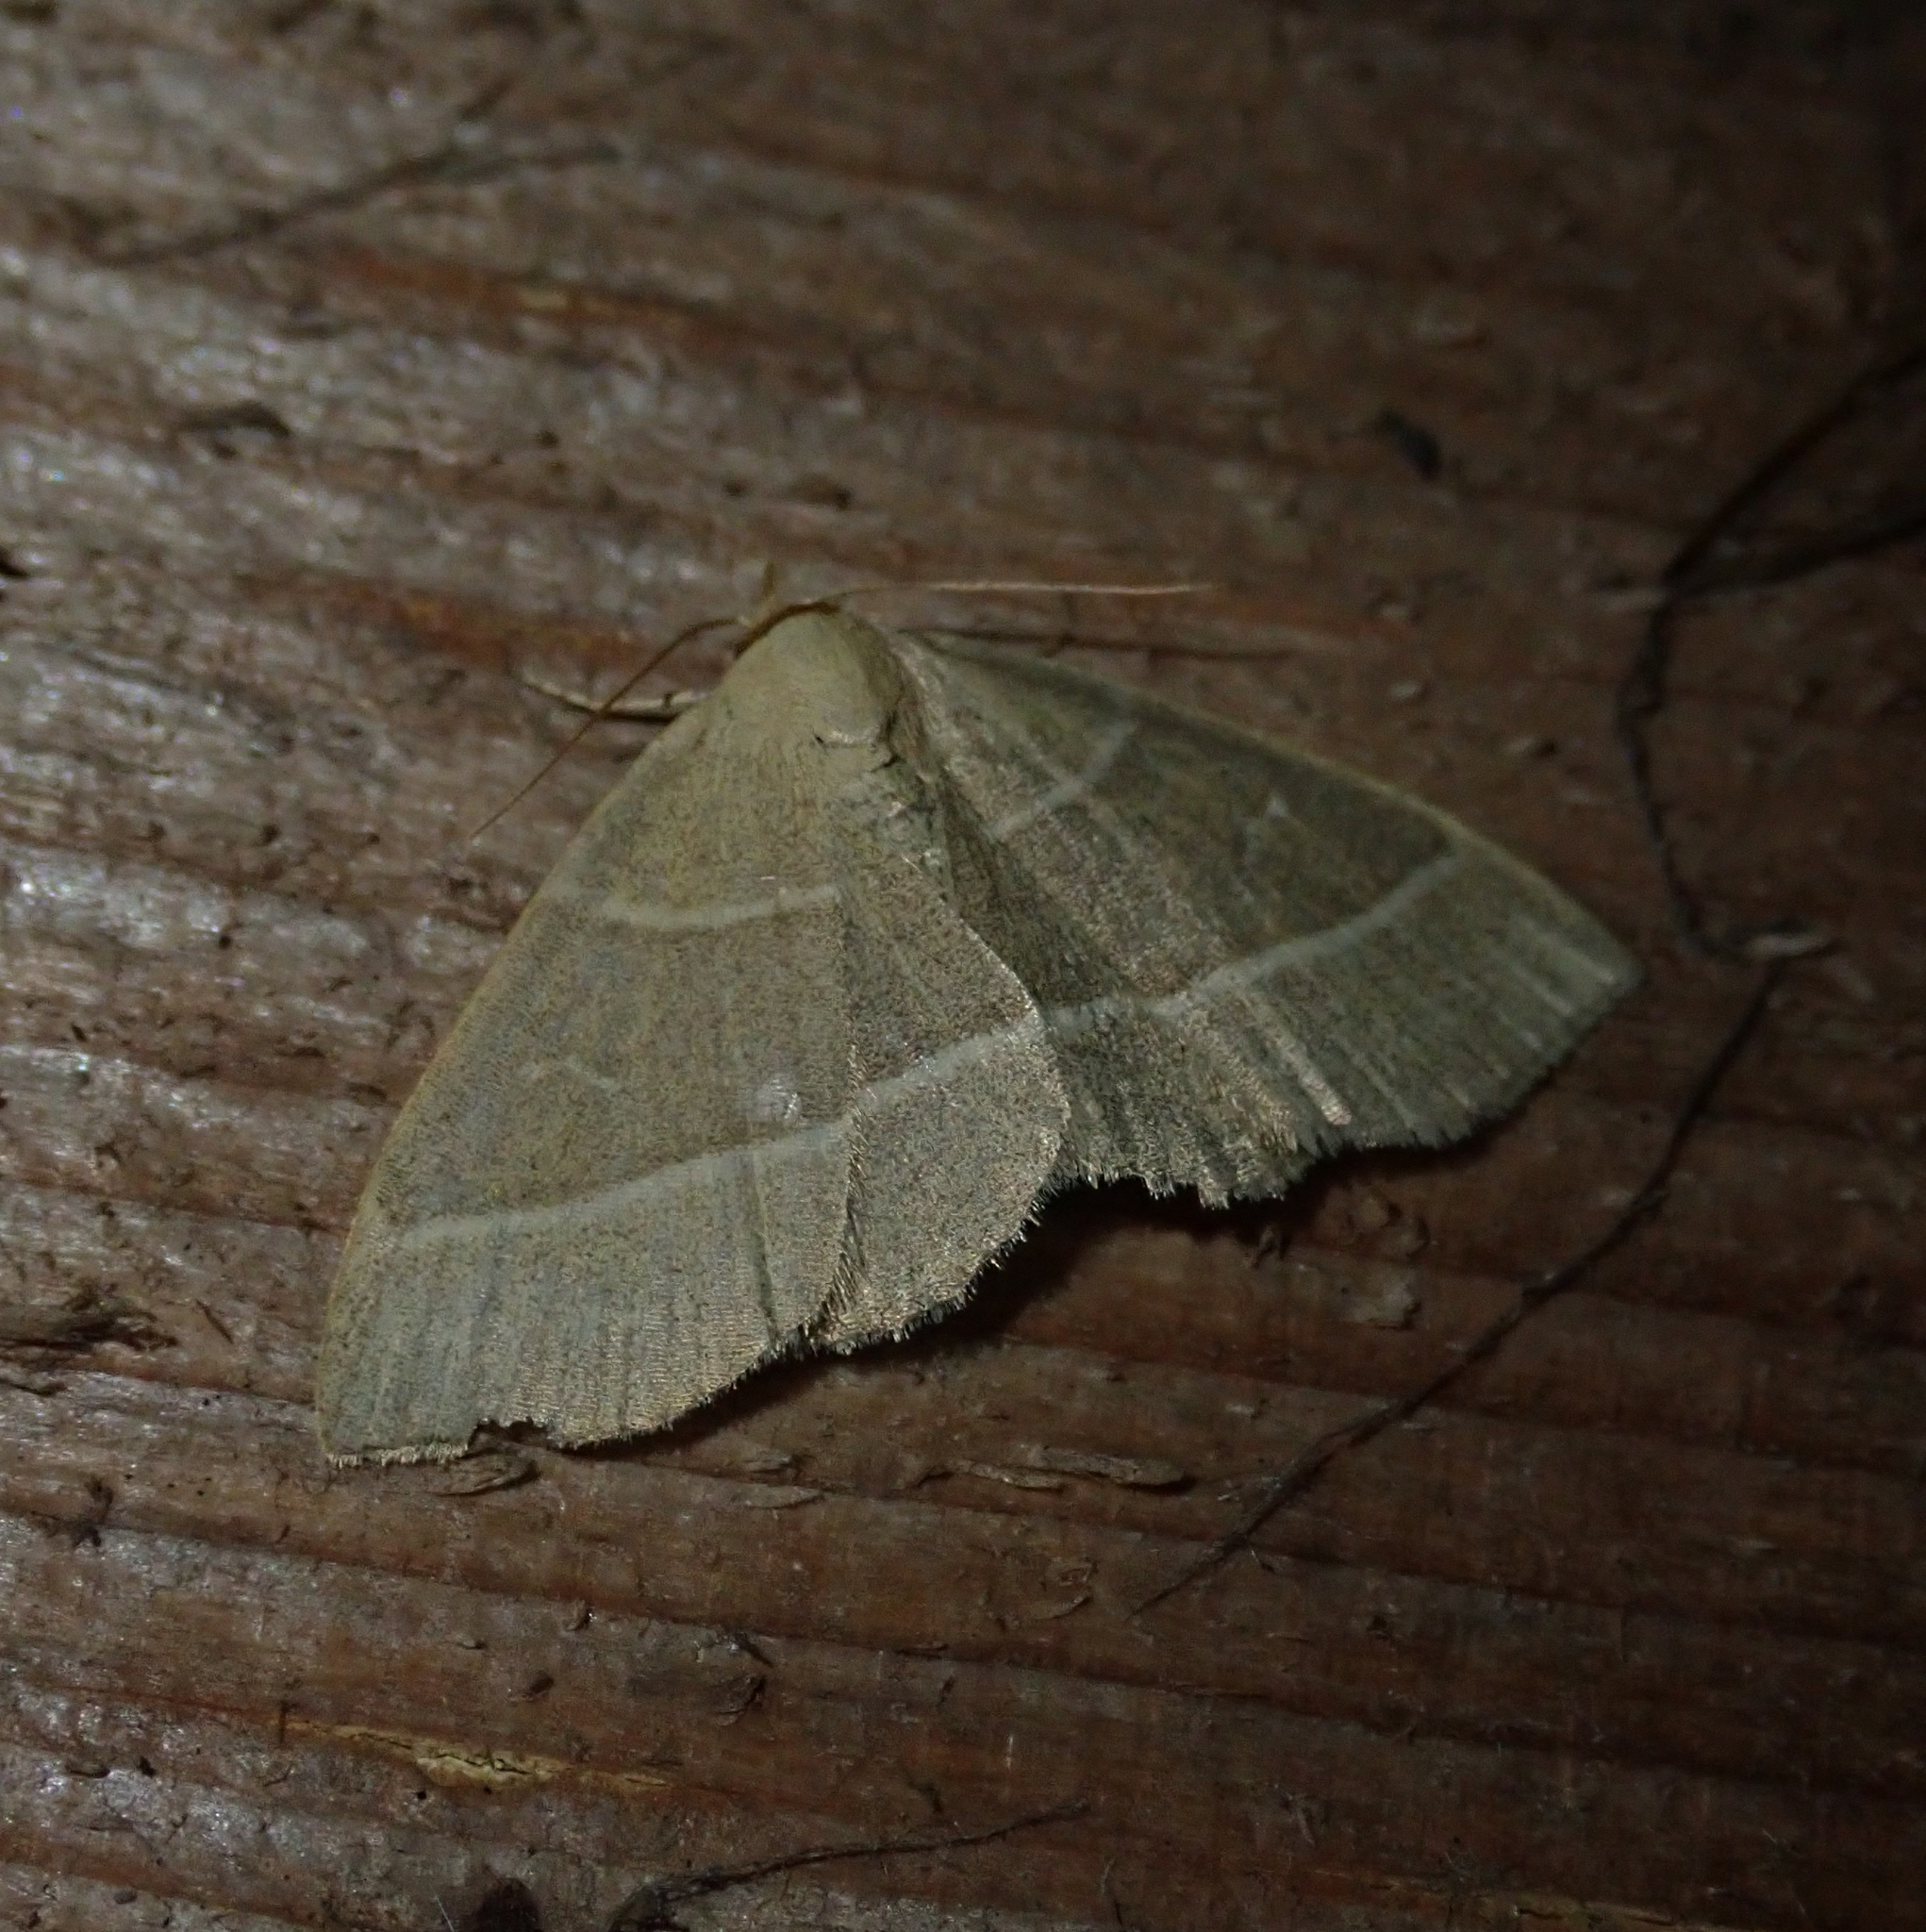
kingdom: Animalia
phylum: Arthropoda
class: Insecta
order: Lepidoptera
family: Erebidae
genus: Trisateles
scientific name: Trisateles emortualis
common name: Olive crescent
